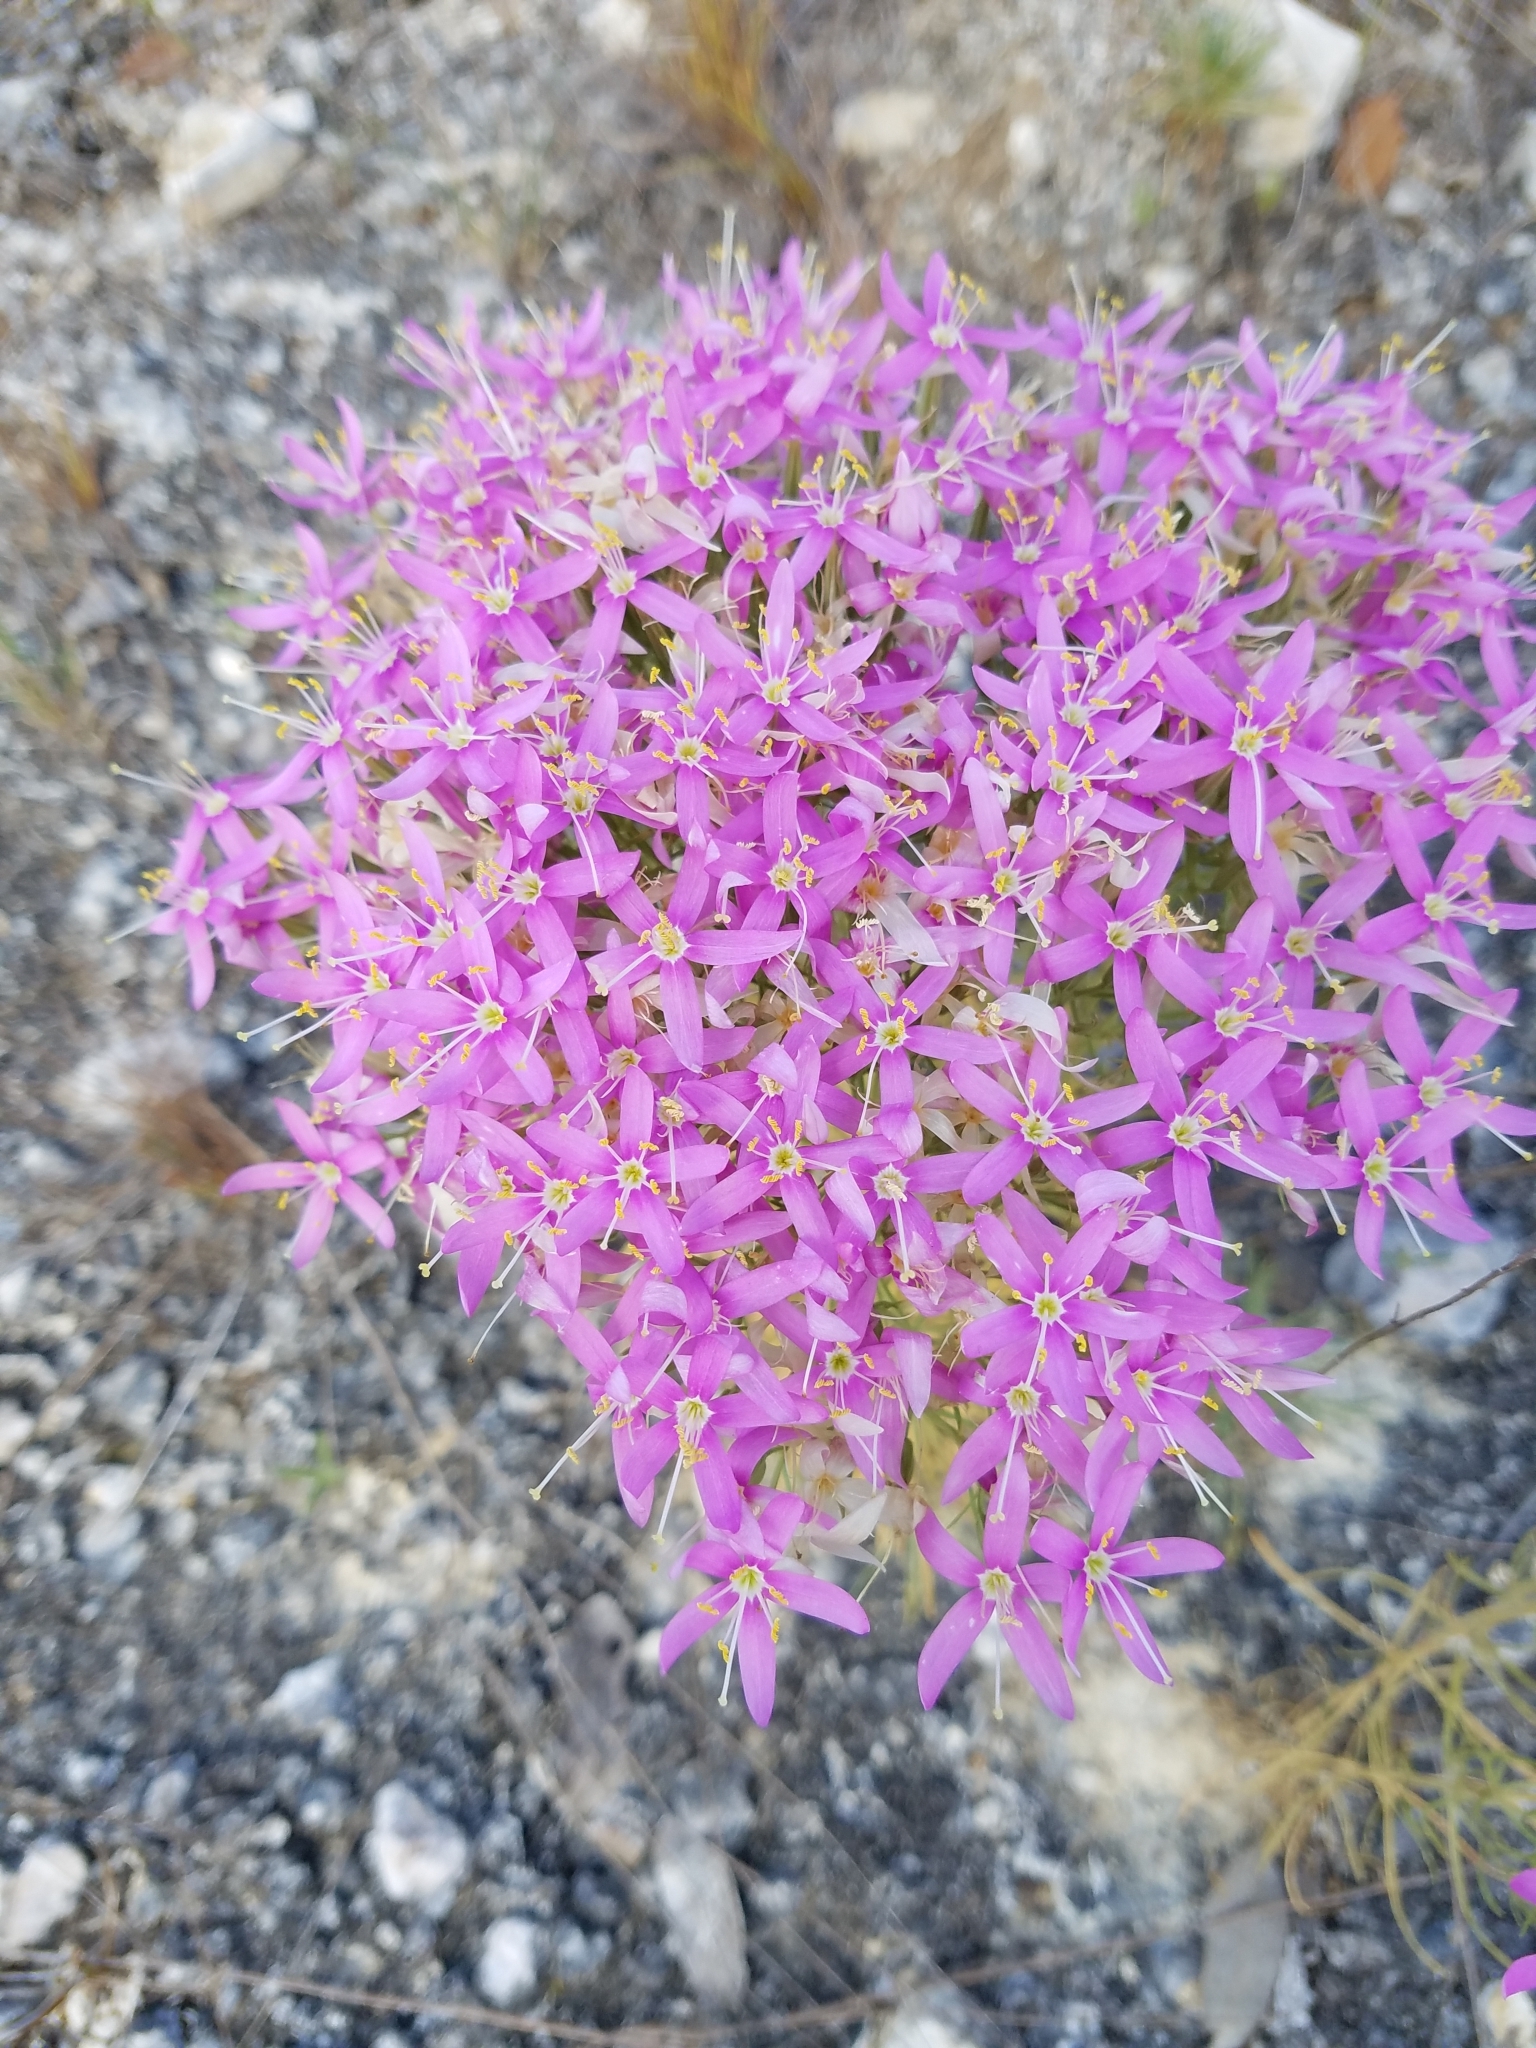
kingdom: Plantae
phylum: Tracheophyta
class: Magnoliopsida
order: Gentianales
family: Gentianaceae
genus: Zeltnera
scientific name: Zeltnera beyrichii
